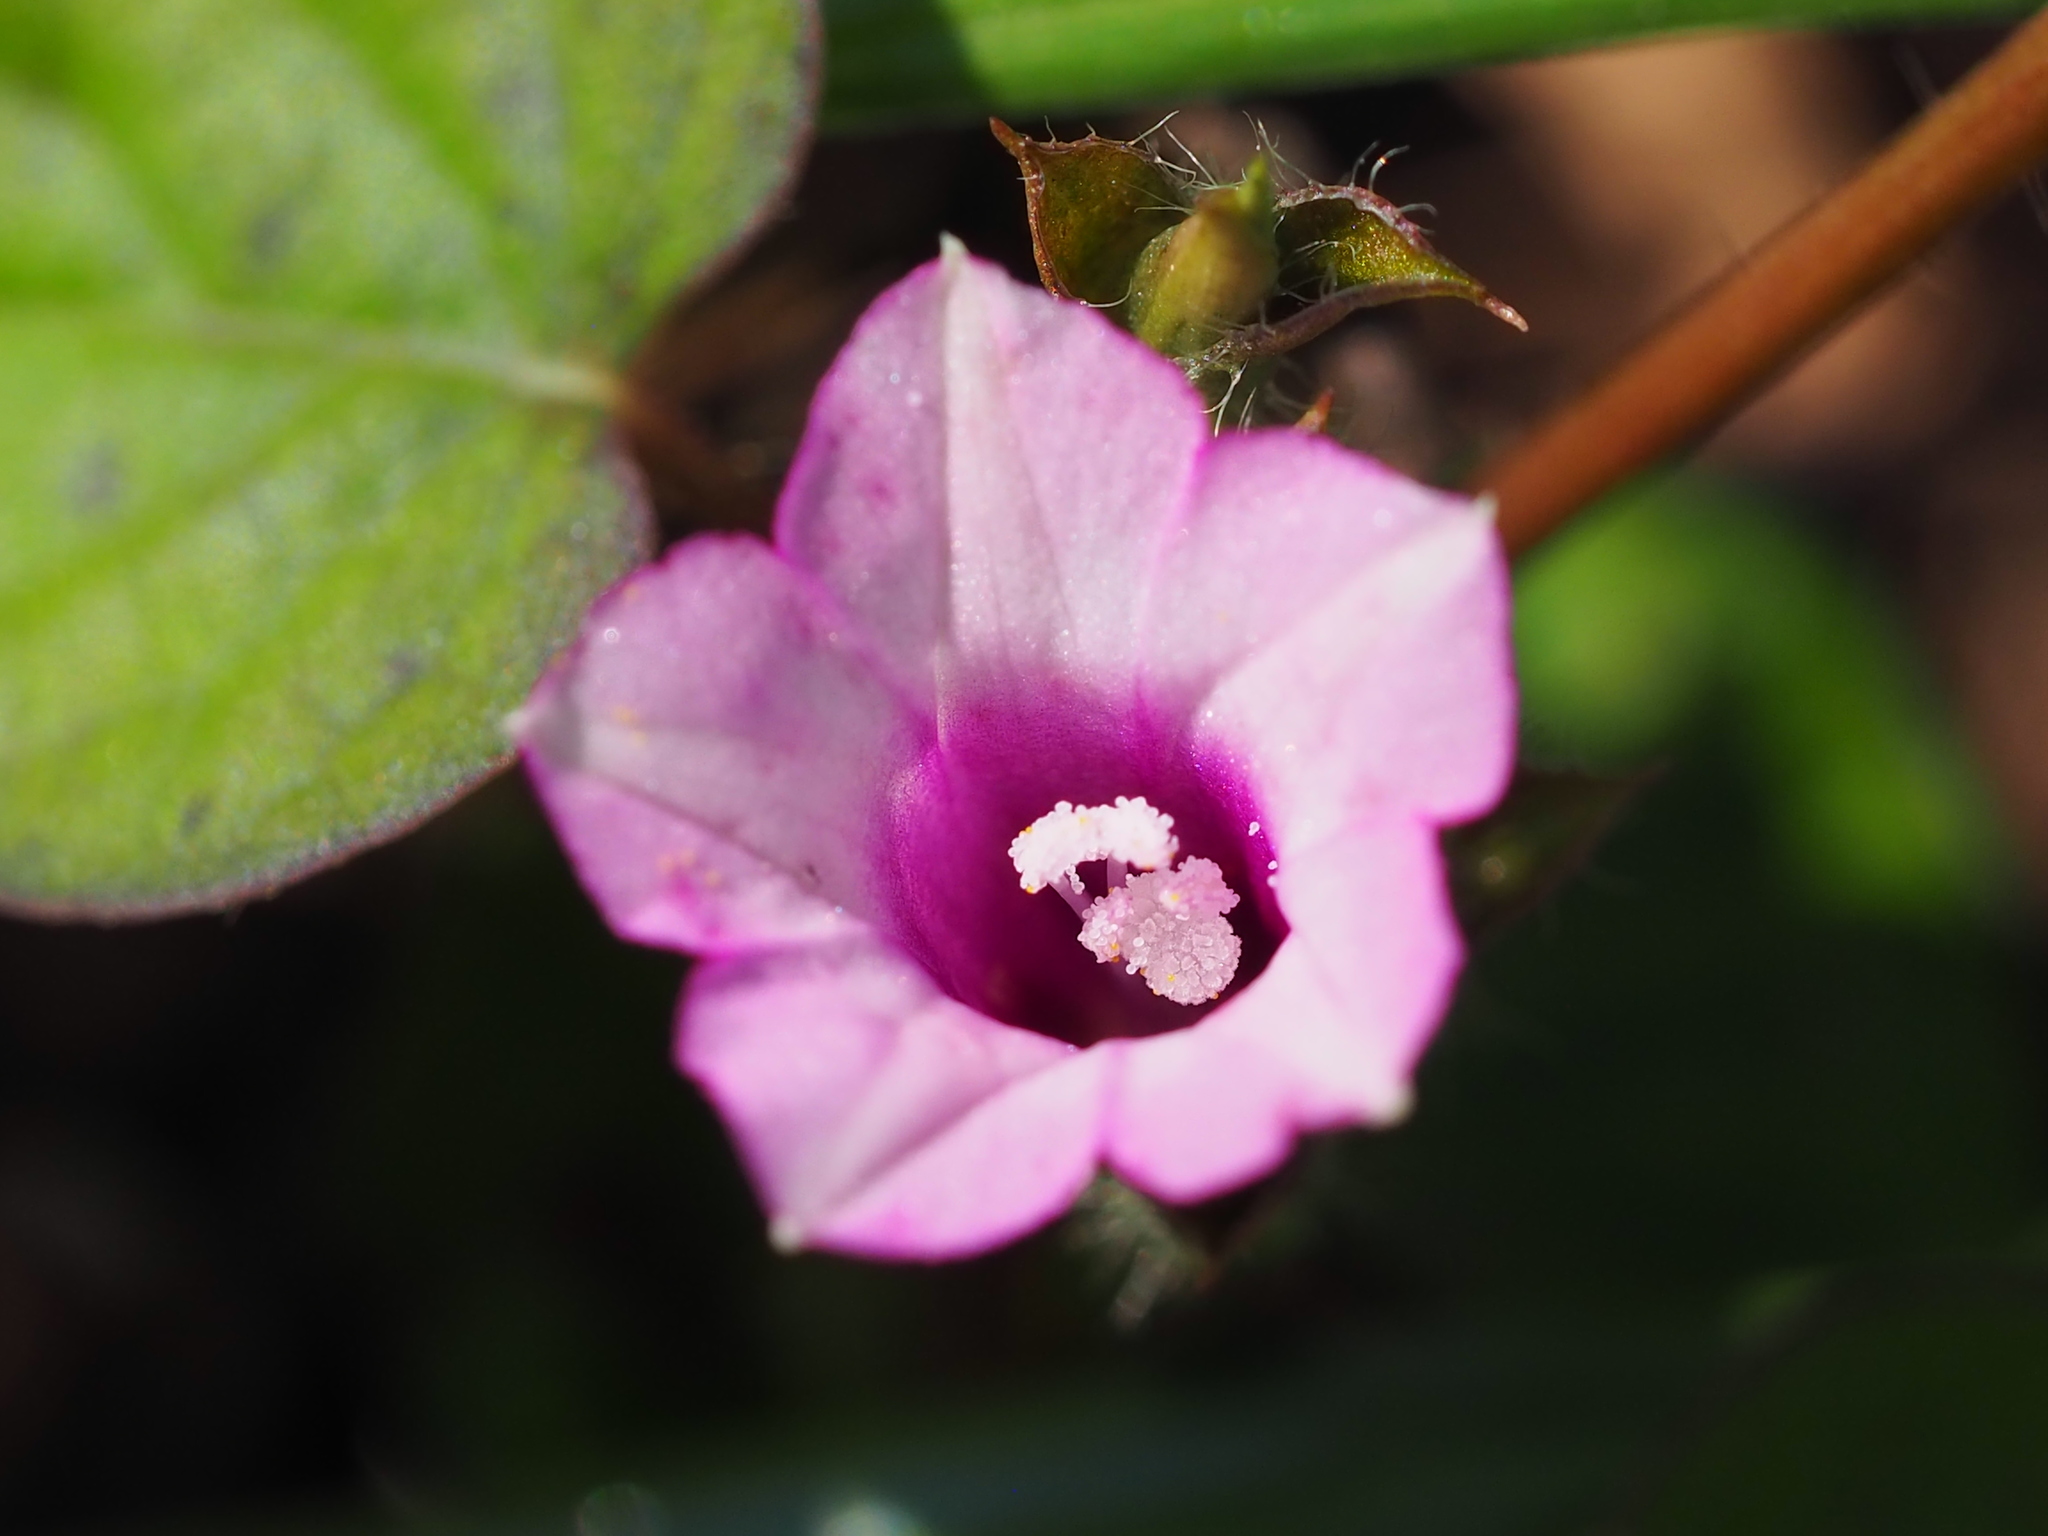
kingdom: Plantae
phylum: Tracheophyta
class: Magnoliopsida
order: Solanales
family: Convolvulaceae
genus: Ipomoea
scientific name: Ipomoea triloba
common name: Little-bell
